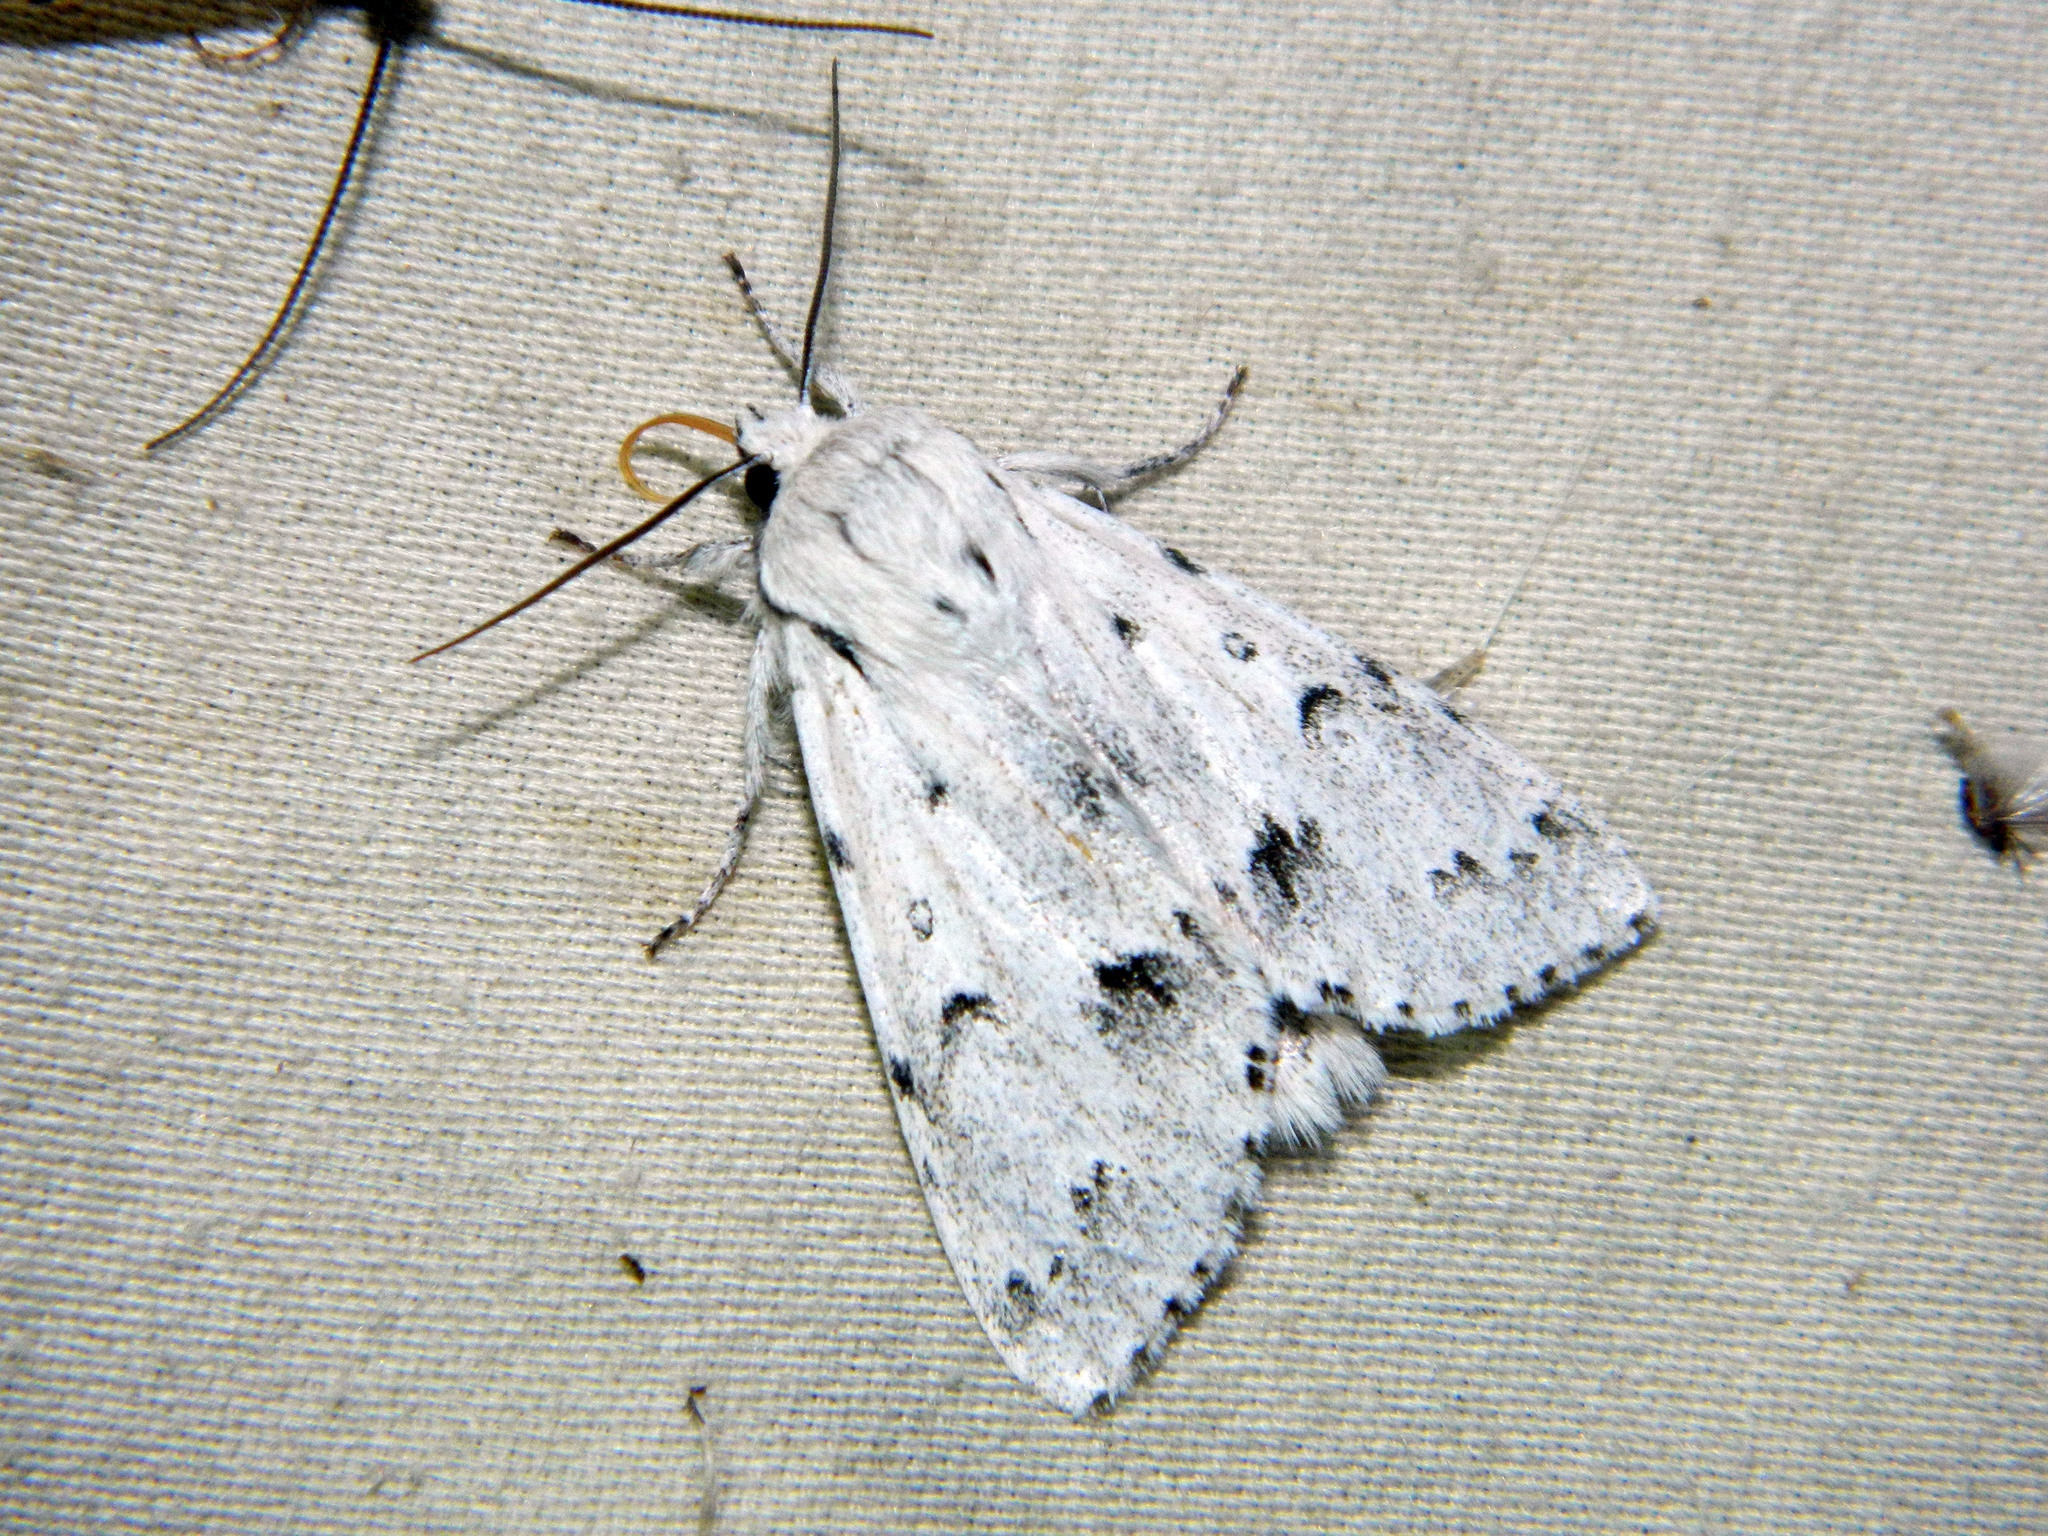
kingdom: Animalia
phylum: Arthropoda
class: Insecta
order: Lepidoptera
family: Noctuidae
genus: Acronicta
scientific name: Acronicta vulpina
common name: Miller dagger
